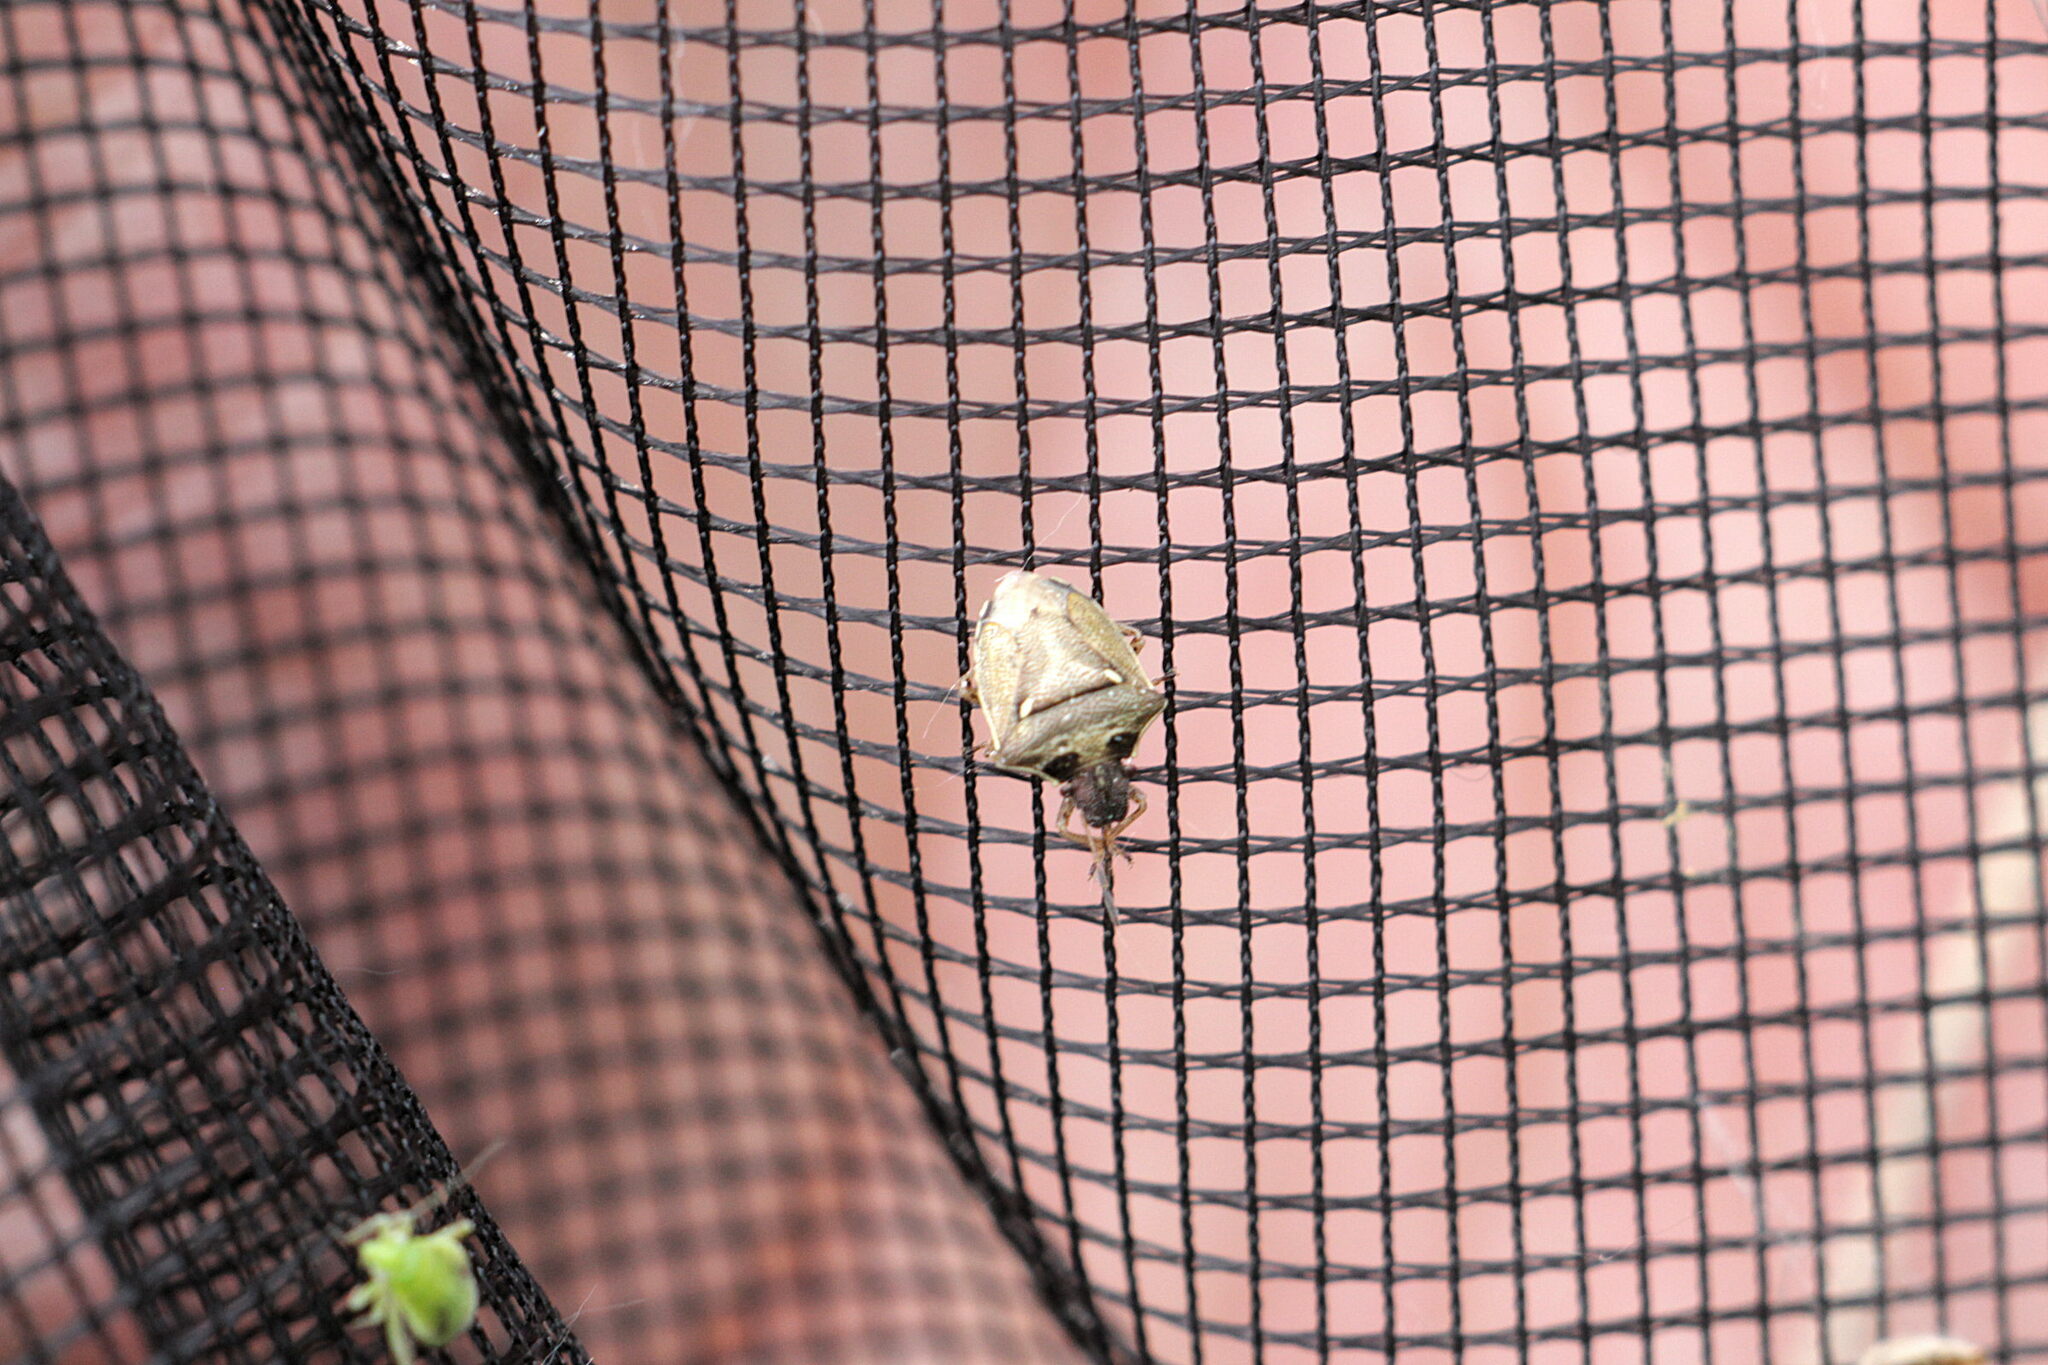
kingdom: Animalia
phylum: Arthropoda
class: Insecta
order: Hemiptera
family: Pentatomidae
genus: Eysarcoris
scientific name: Eysarcoris aeneus
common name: New forest shieldbug
